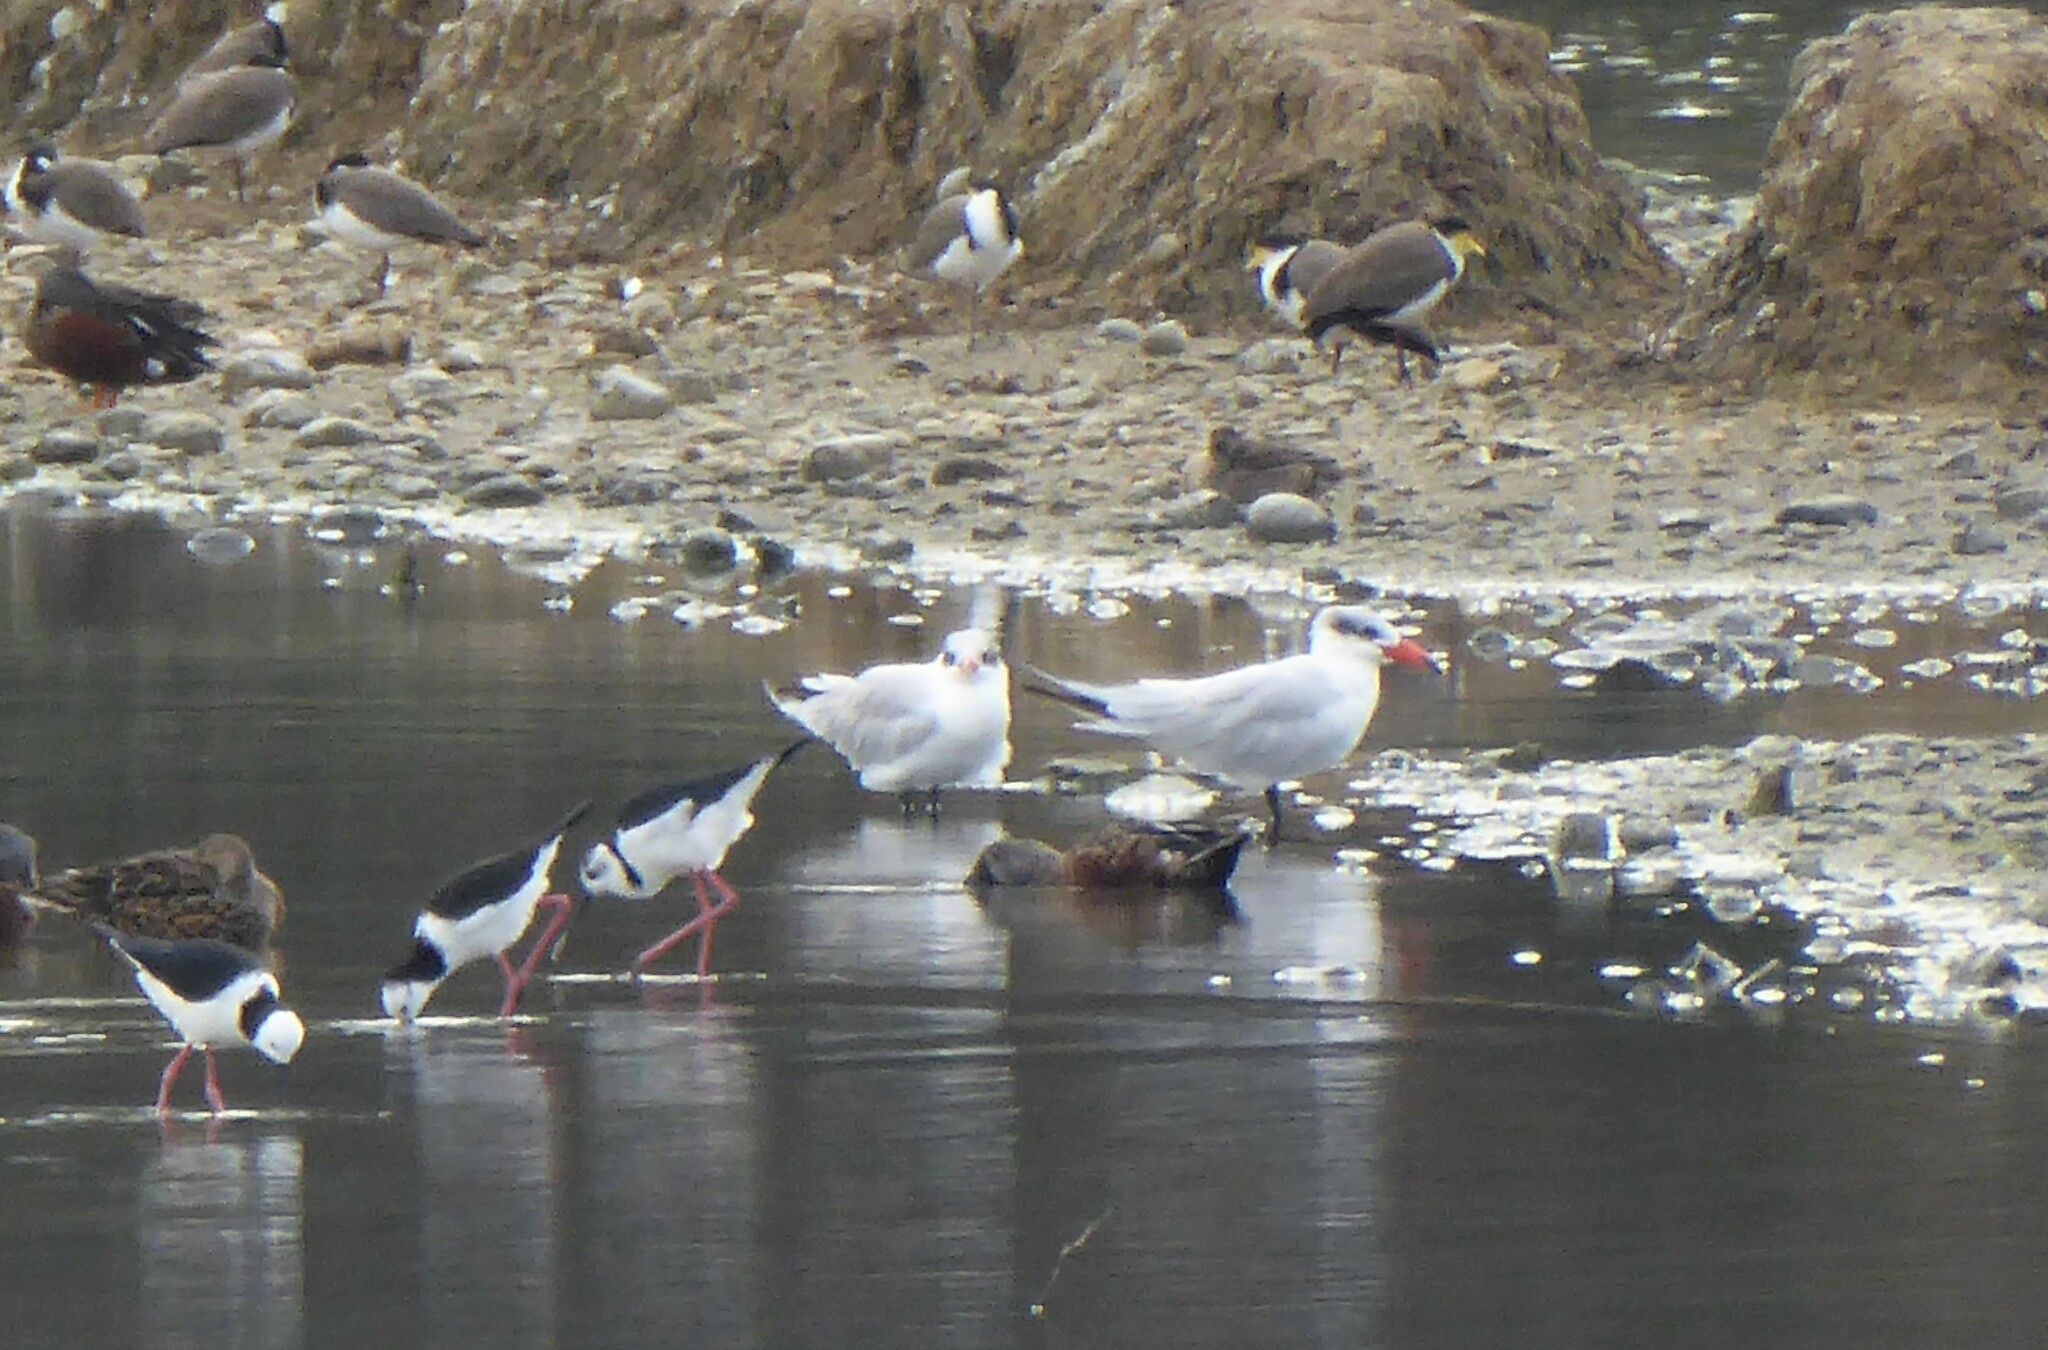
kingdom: Animalia
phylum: Chordata
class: Aves
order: Charadriiformes
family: Laridae
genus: Hydroprogne
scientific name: Hydroprogne caspia
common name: Caspian tern
